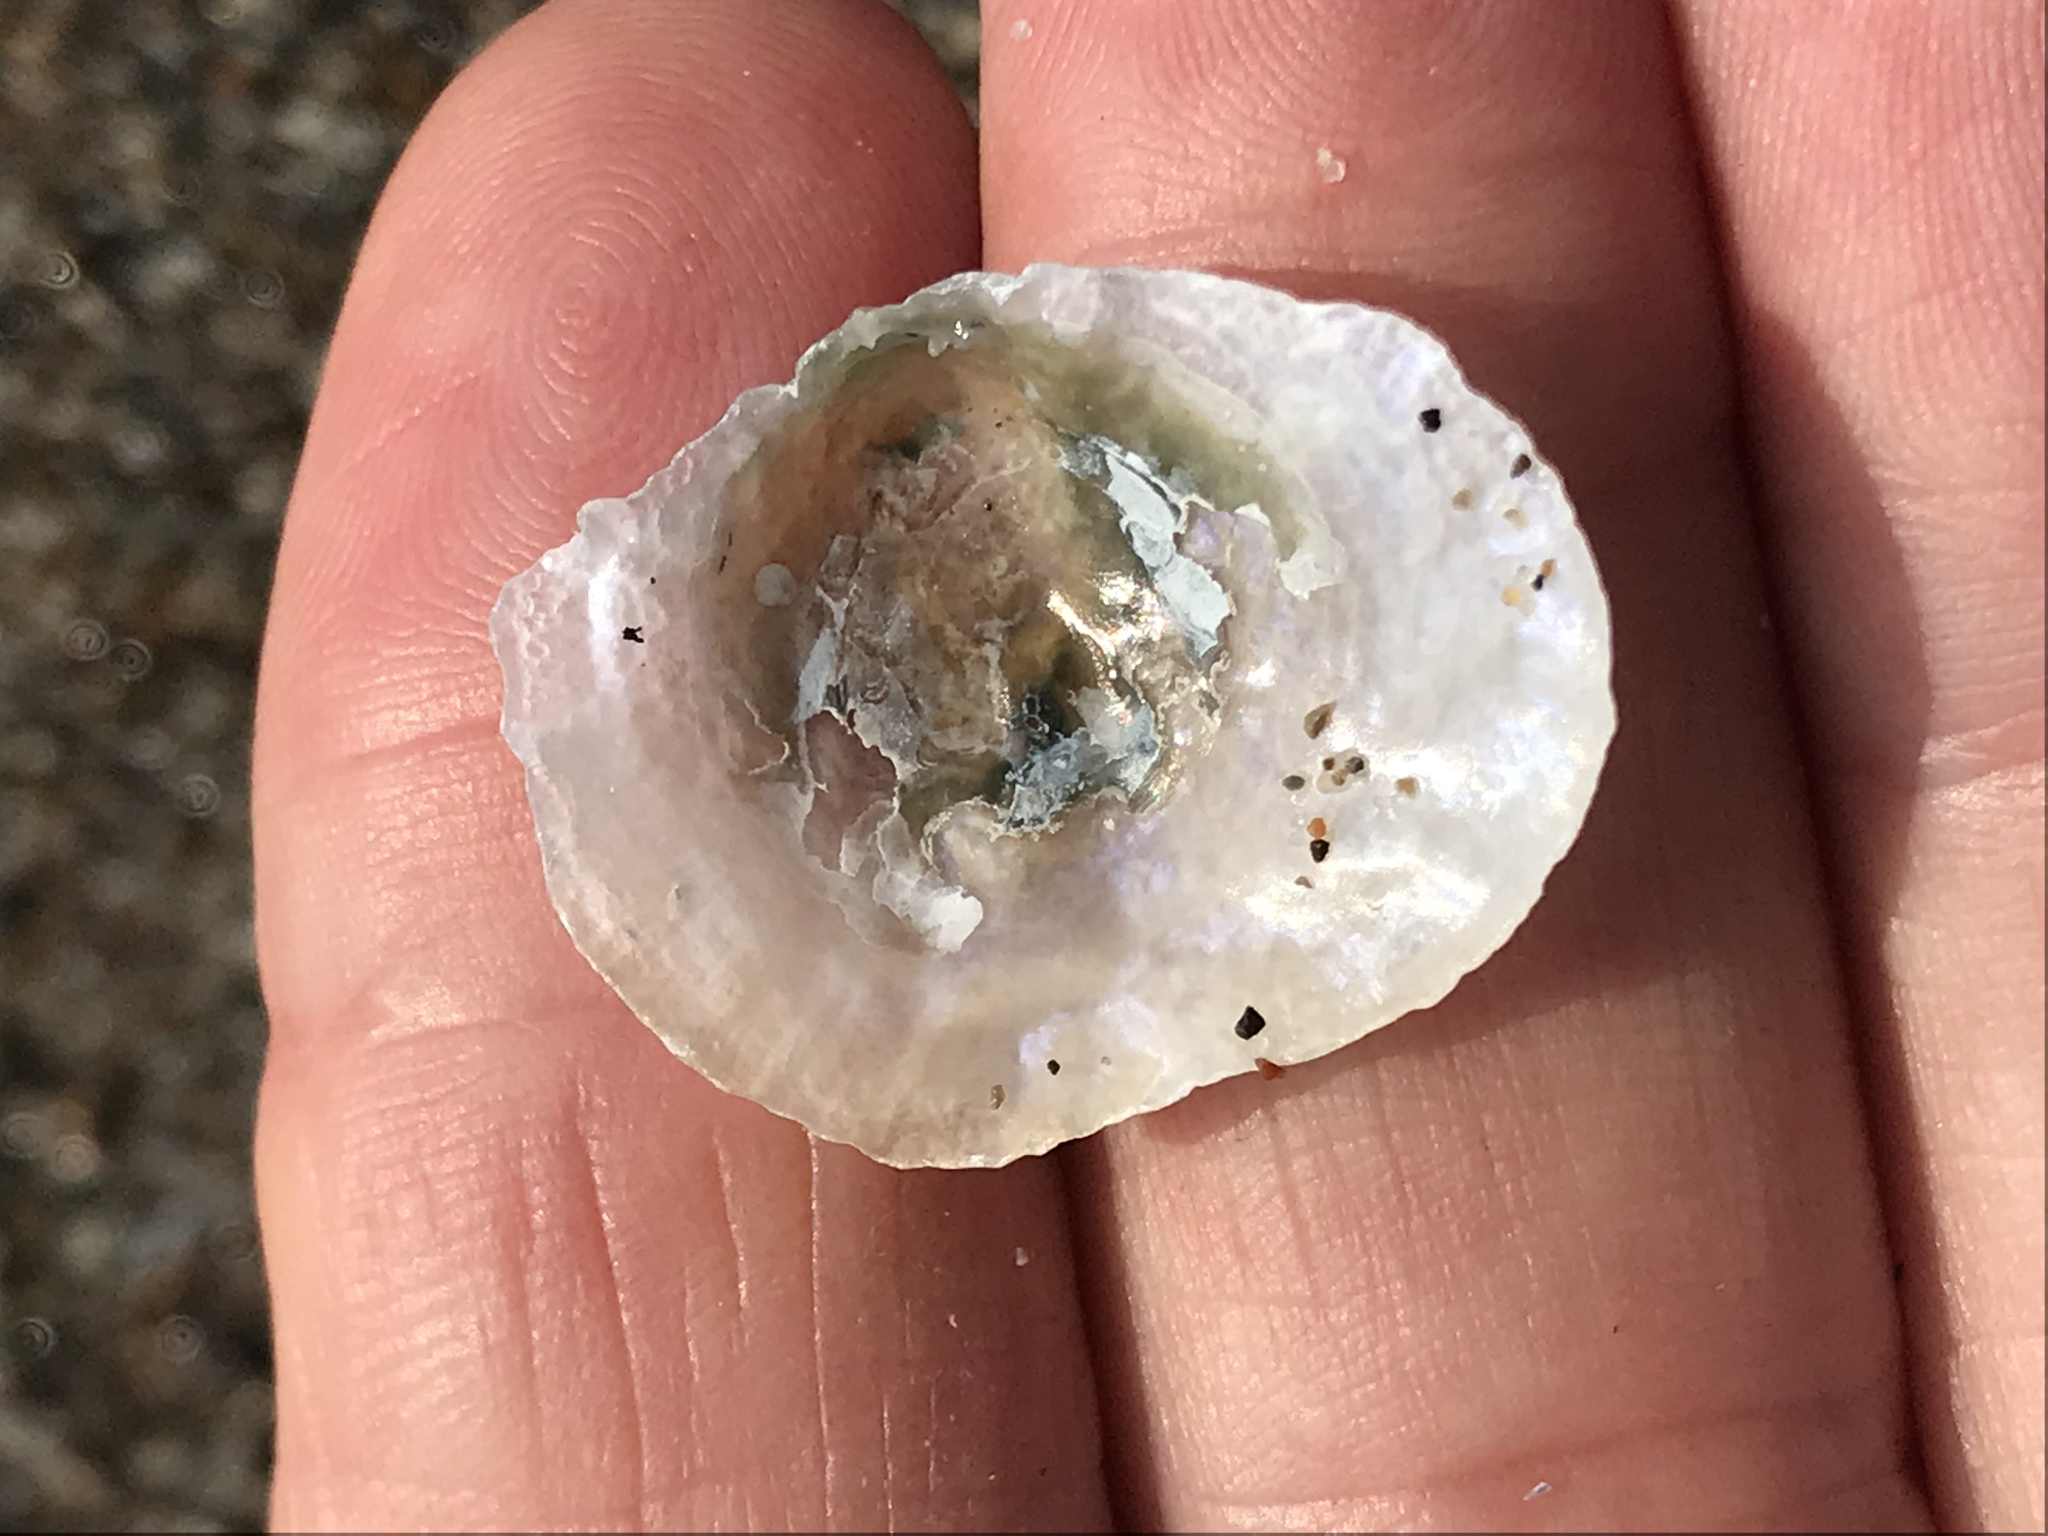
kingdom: Animalia
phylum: Mollusca
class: Bivalvia
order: Pectinida
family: Anomiidae
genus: Pododesmus
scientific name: Pododesmus macrochisma
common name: Alaska jingle
